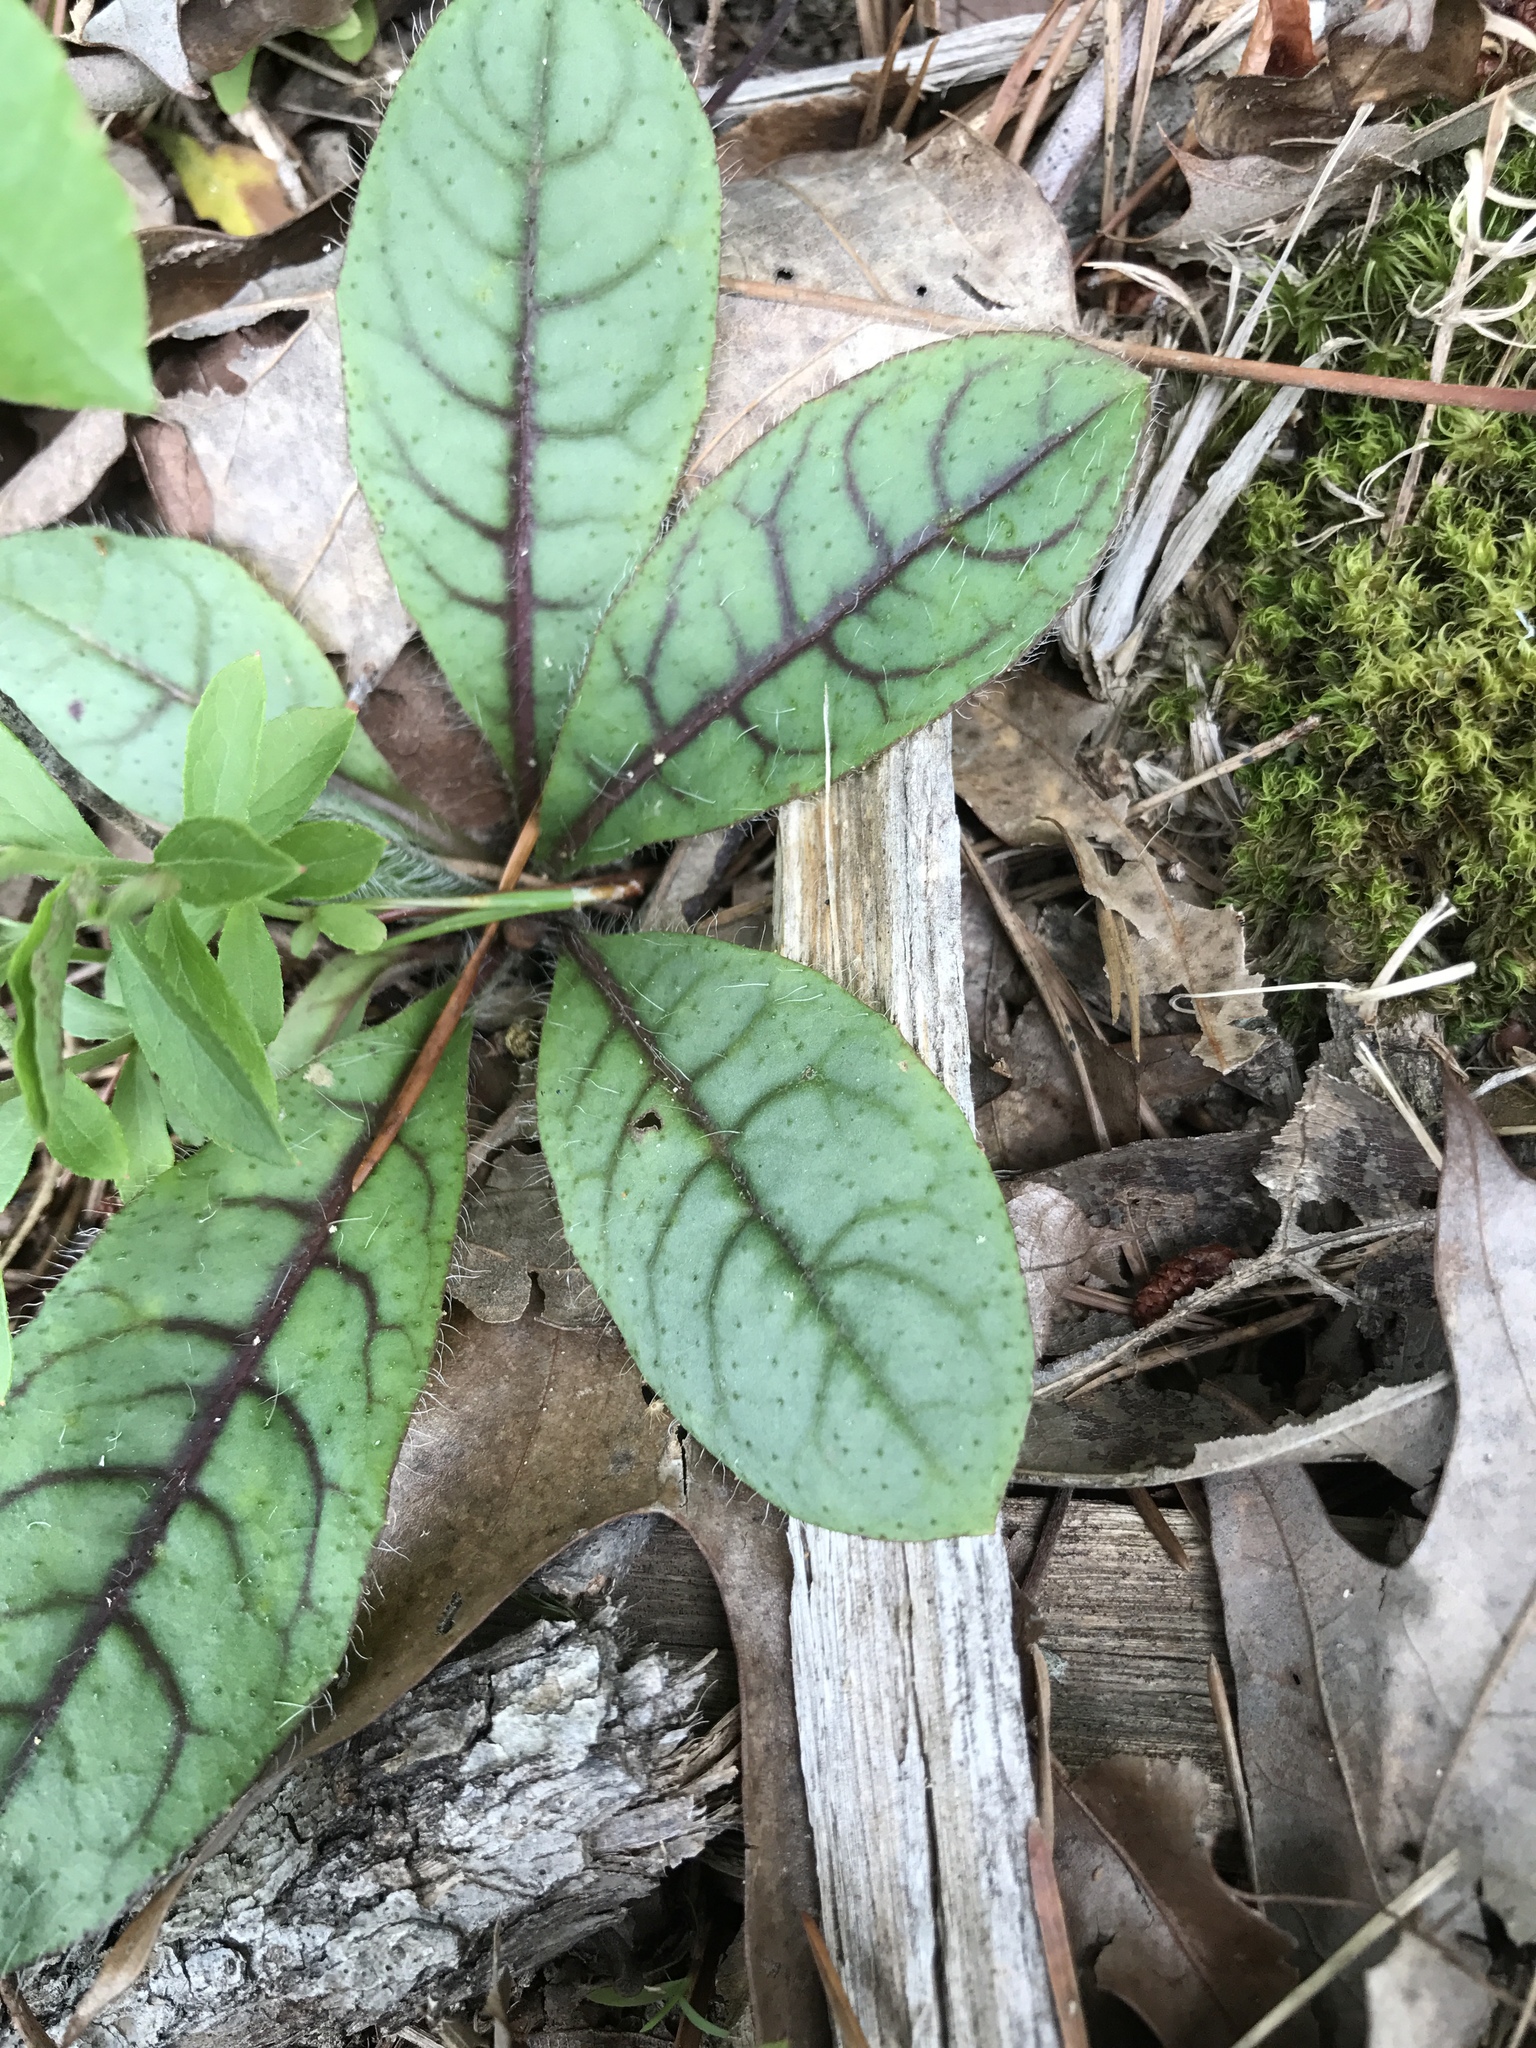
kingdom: Plantae
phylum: Tracheophyta
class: Magnoliopsida
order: Asterales
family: Asteraceae
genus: Hieracium
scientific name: Hieracium venosum
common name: Rattlesnake hawkweed
